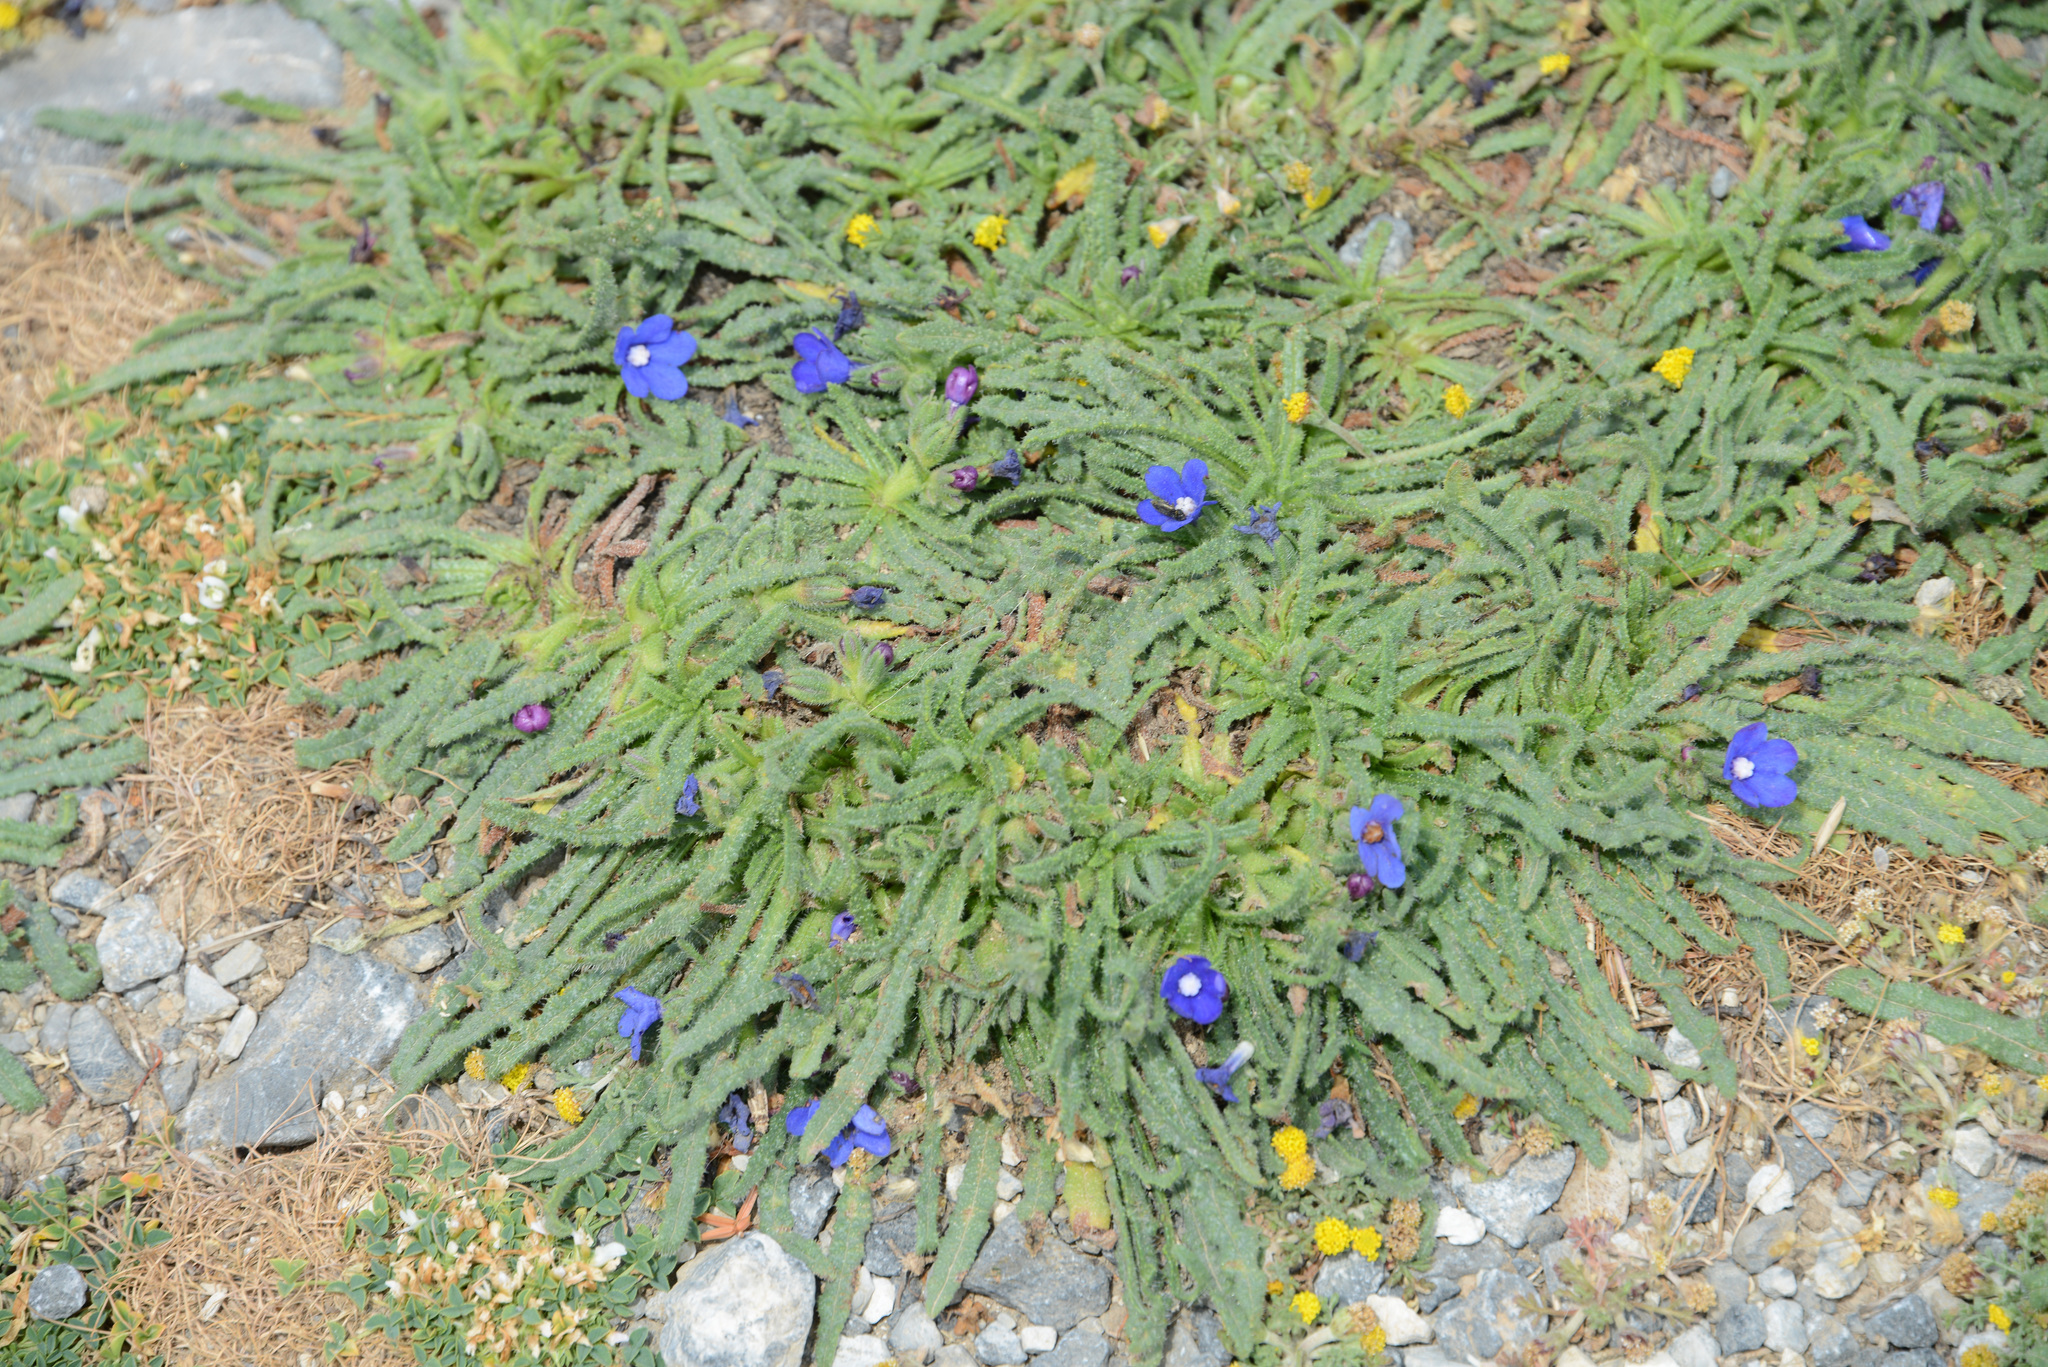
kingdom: Plantae
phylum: Tracheophyta
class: Magnoliopsida
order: Boraginales
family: Boraginaceae
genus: Anchusa
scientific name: Anchusa cespitosa
